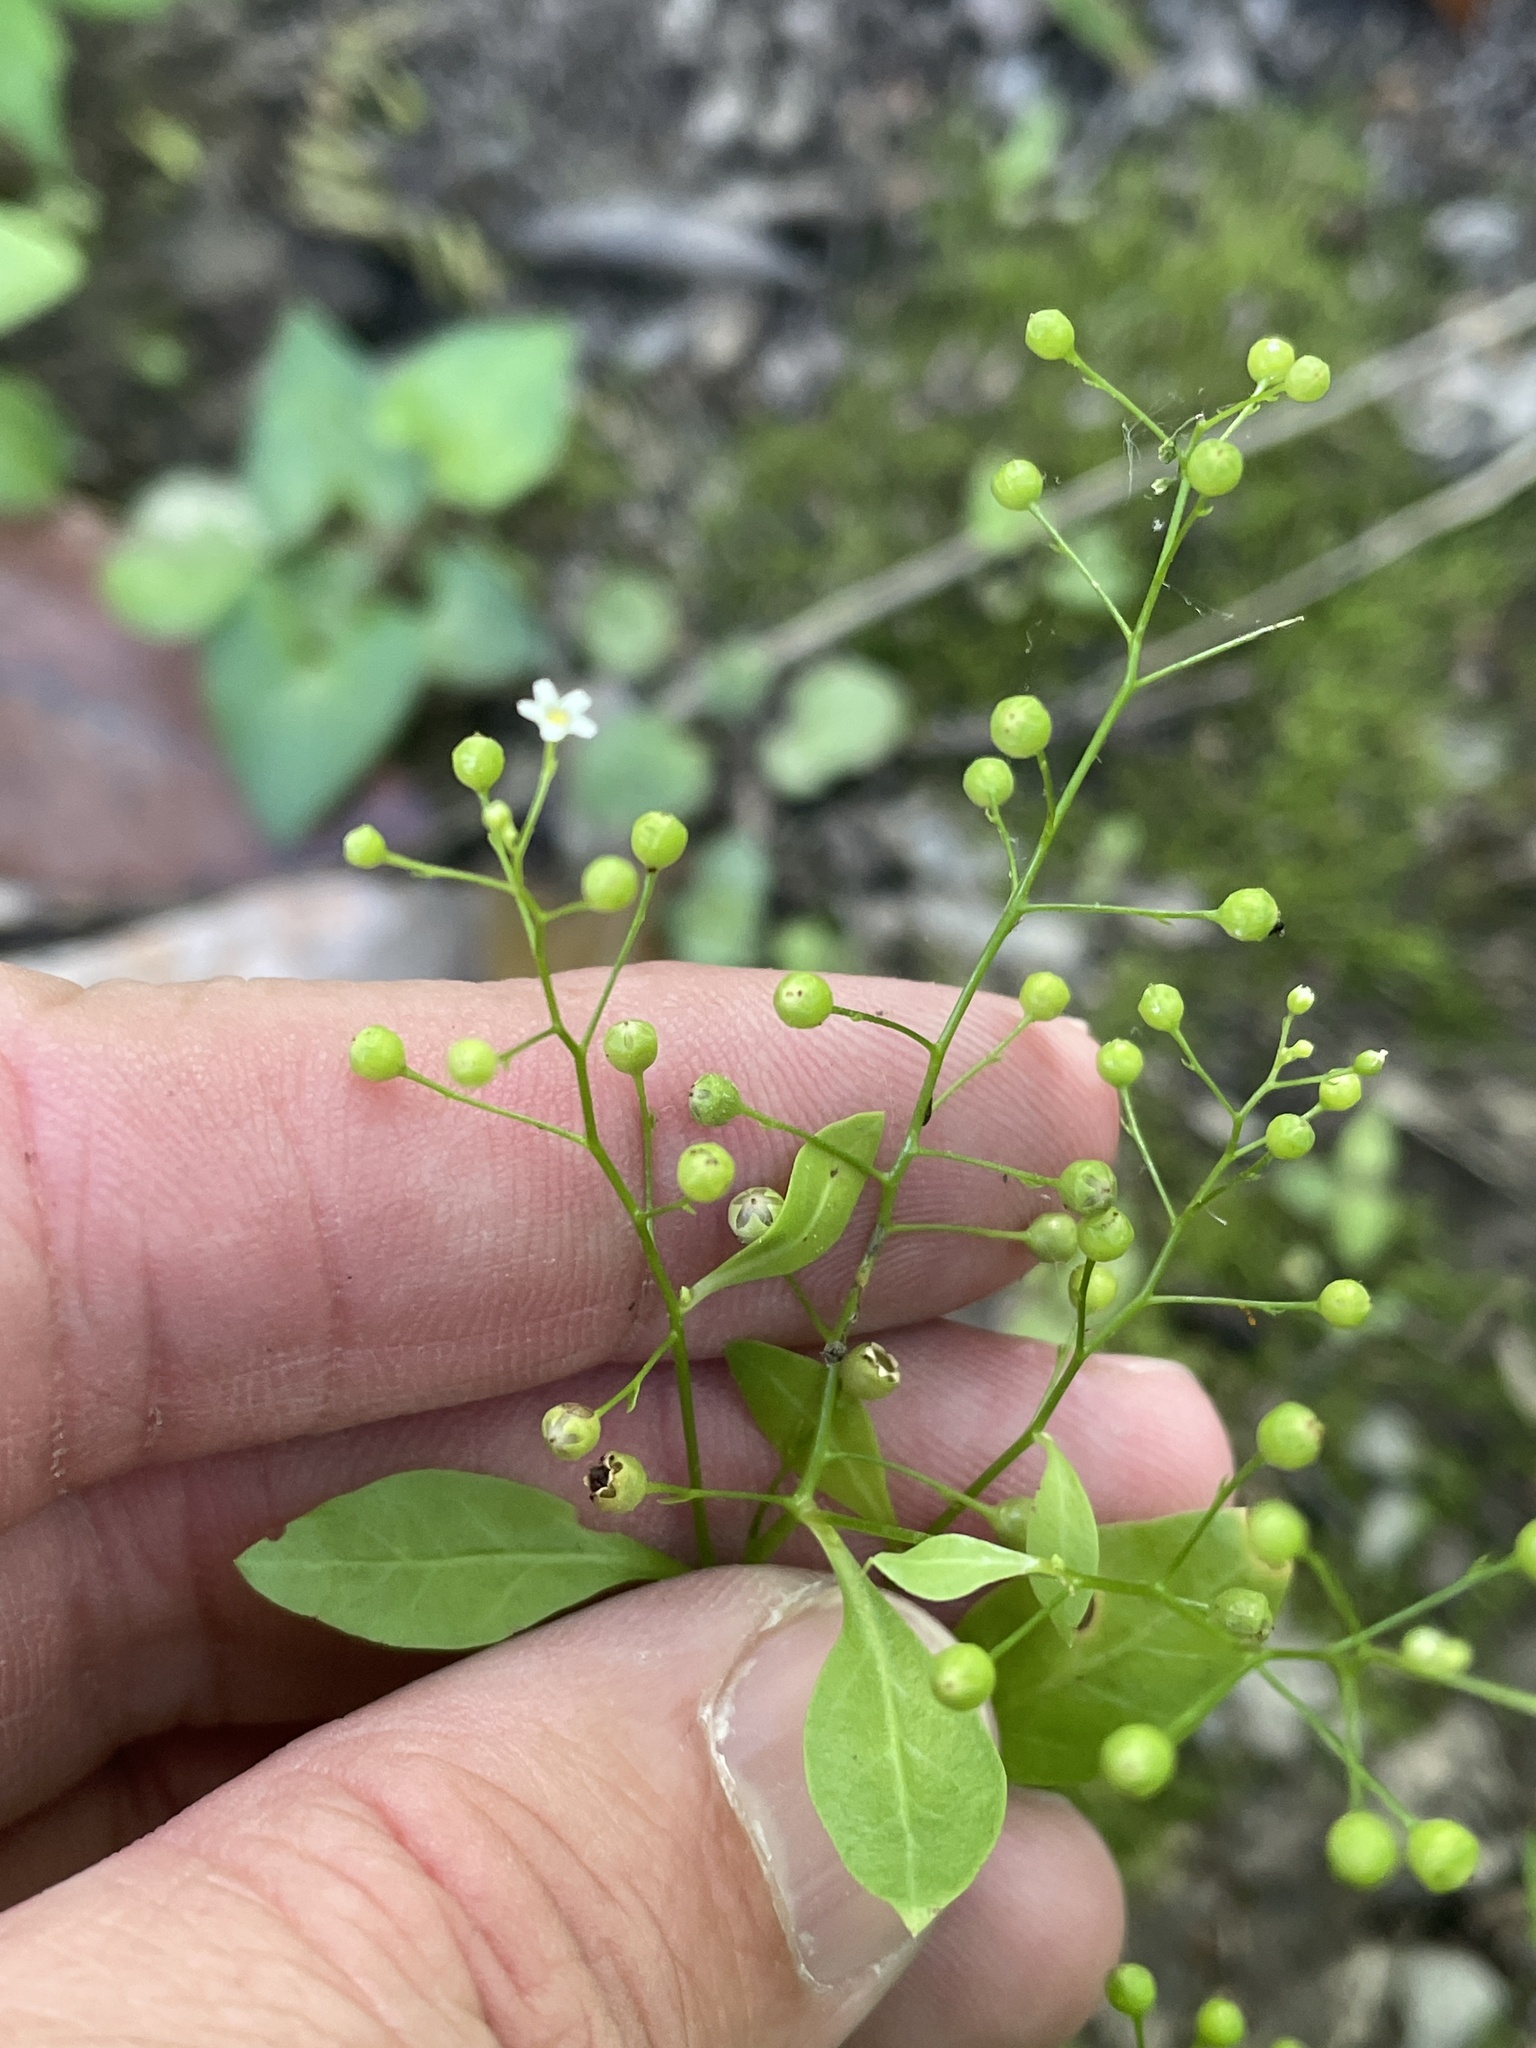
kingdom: Plantae
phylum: Tracheophyta
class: Magnoliopsida
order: Ericales
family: Primulaceae
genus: Samolus
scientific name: Samolus parviflorus
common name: False water pimpernel
